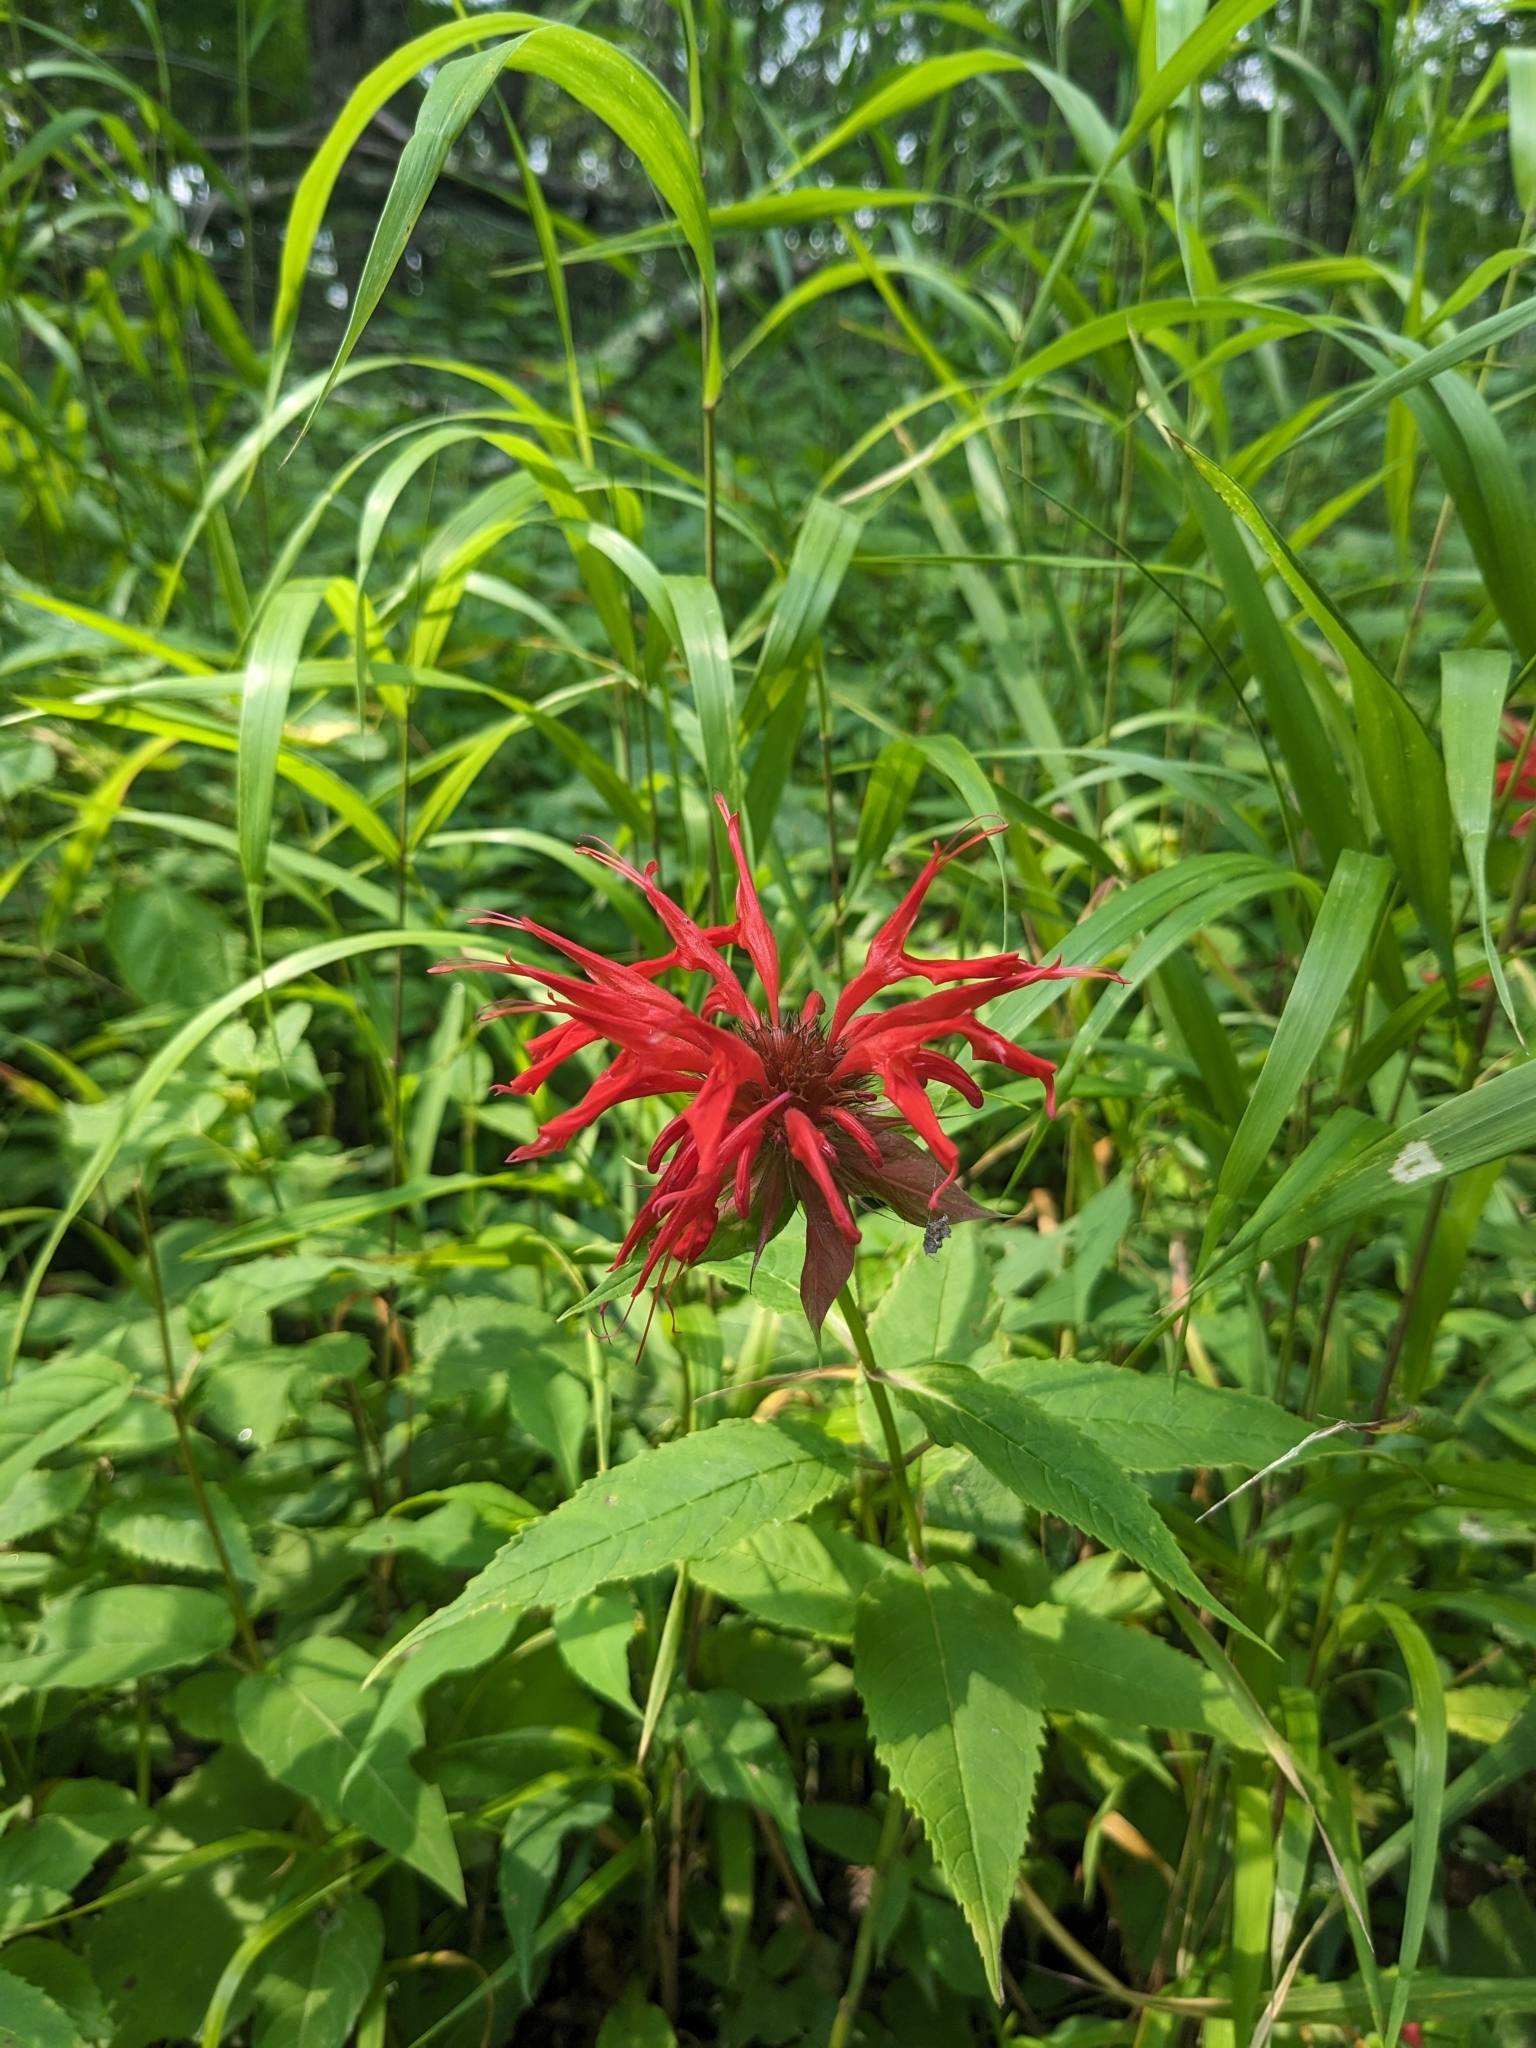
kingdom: Plantae
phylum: Tracheophyta
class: Magnoliopsida
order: Lamiales
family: Lamiaceae
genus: Monarda
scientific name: Monarda didyma
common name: Beebalm
